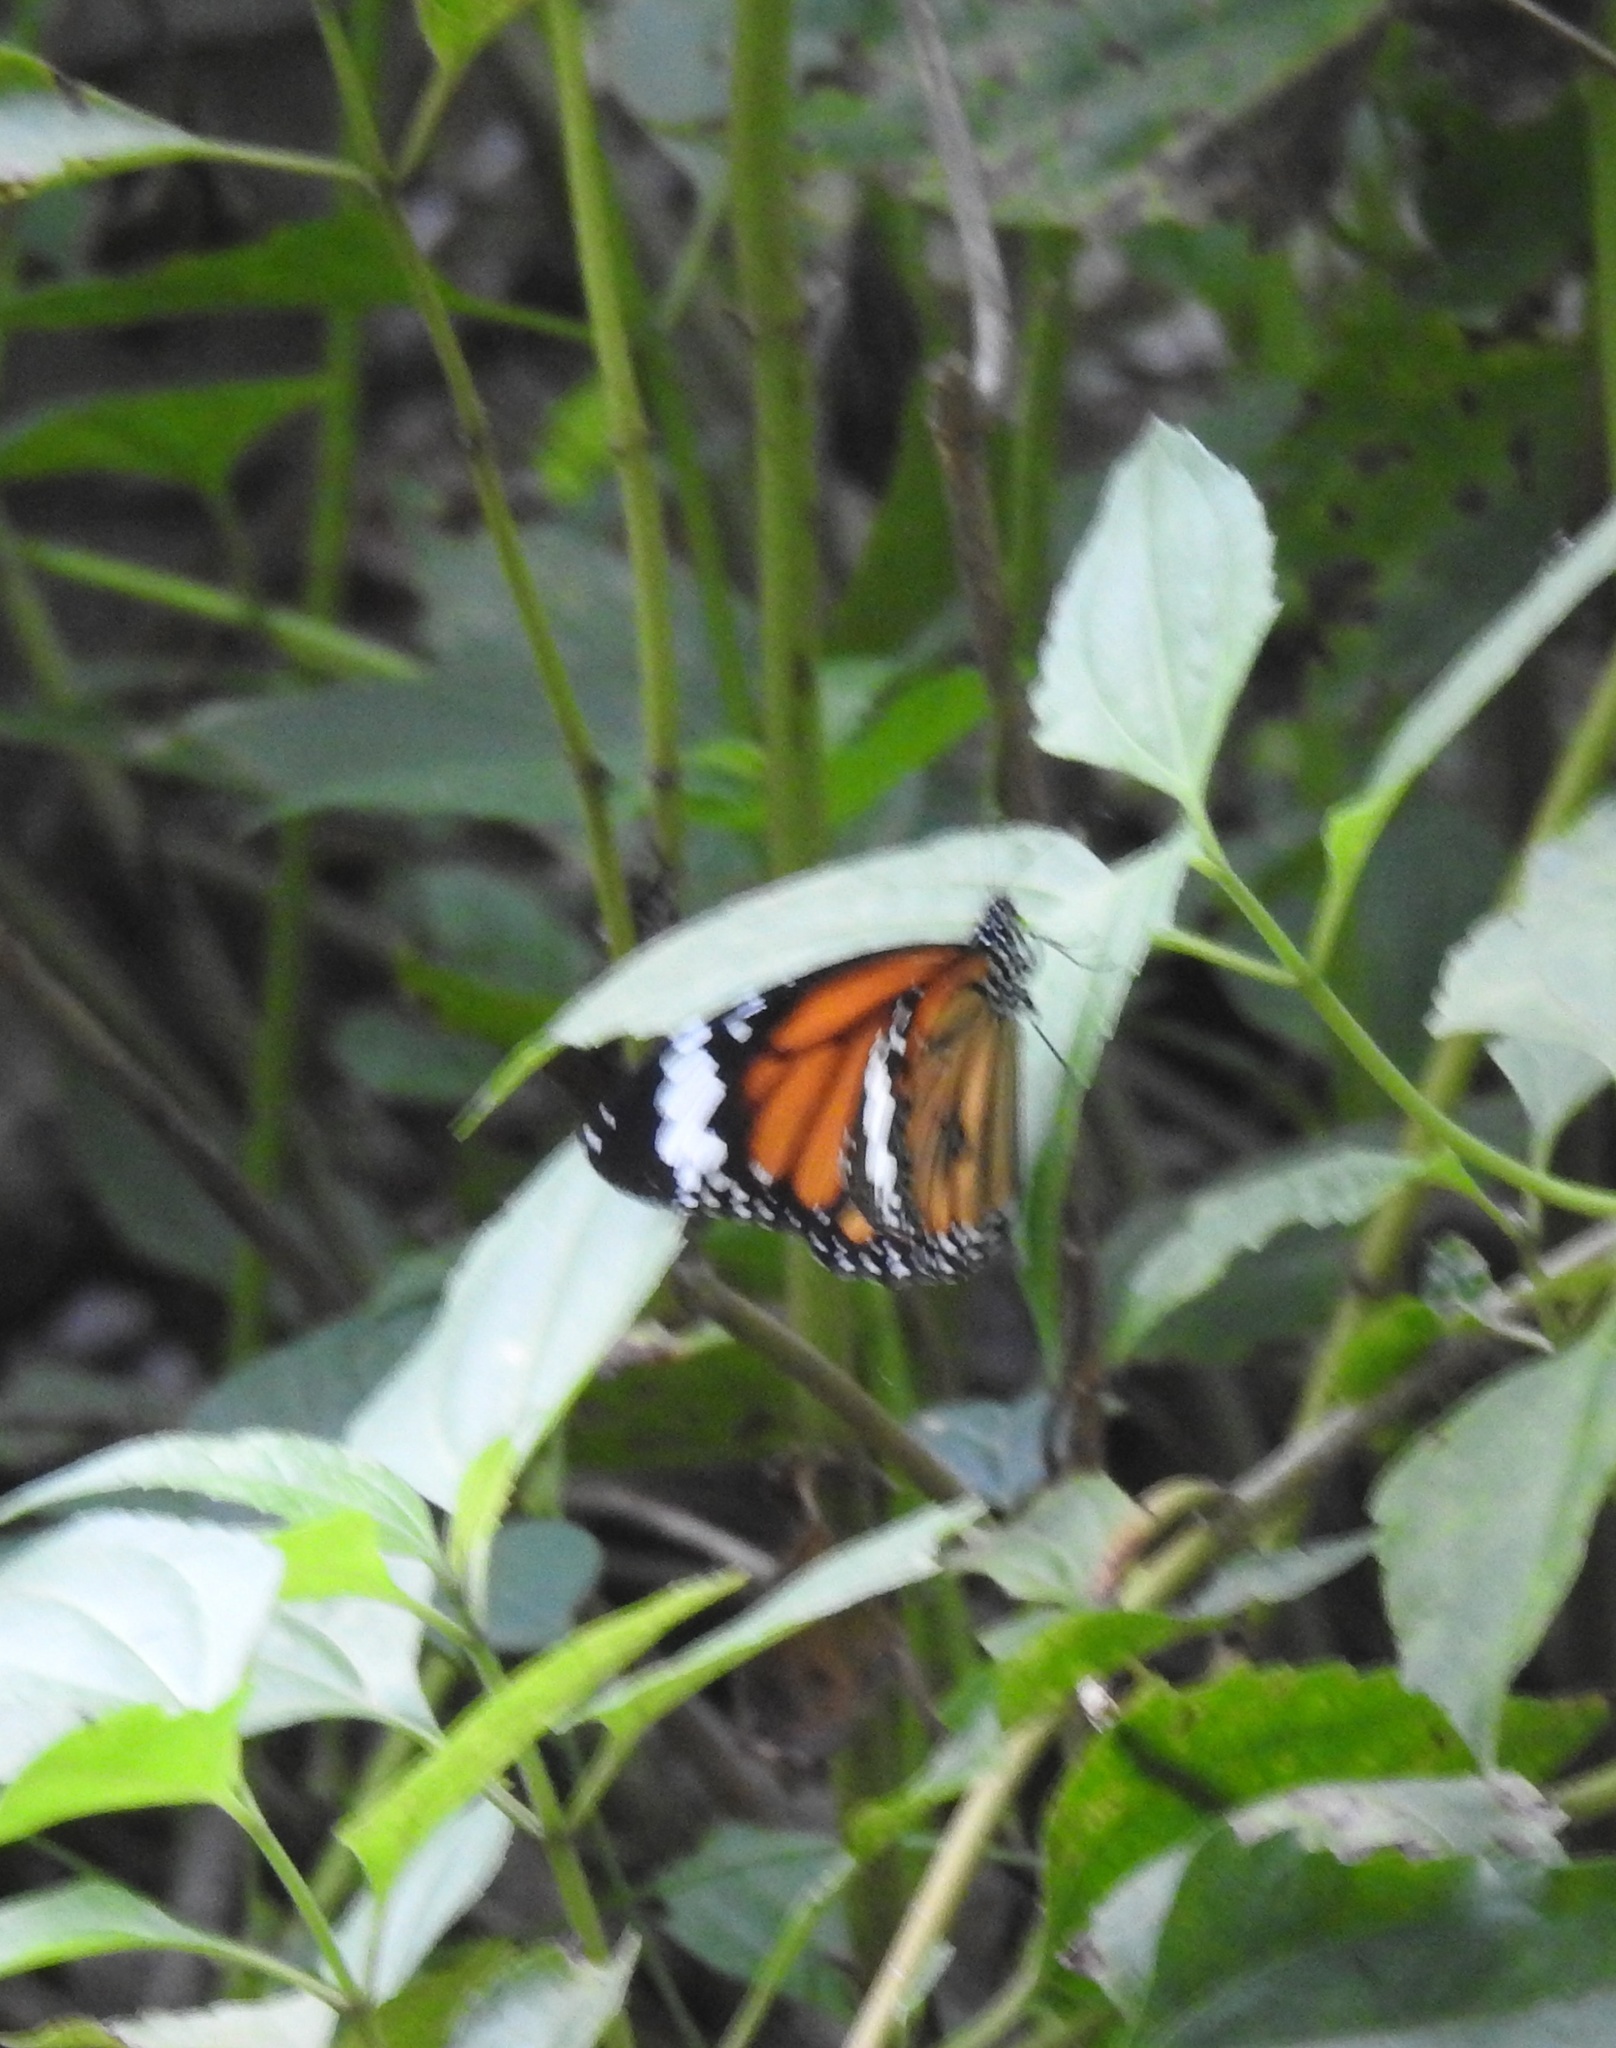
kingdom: Animalia
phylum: Arthropoda
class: Insecta
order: Lepidoptera
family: Nymphalidae
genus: Danaus
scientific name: Danaus genutia
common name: Common tiger butterfly
